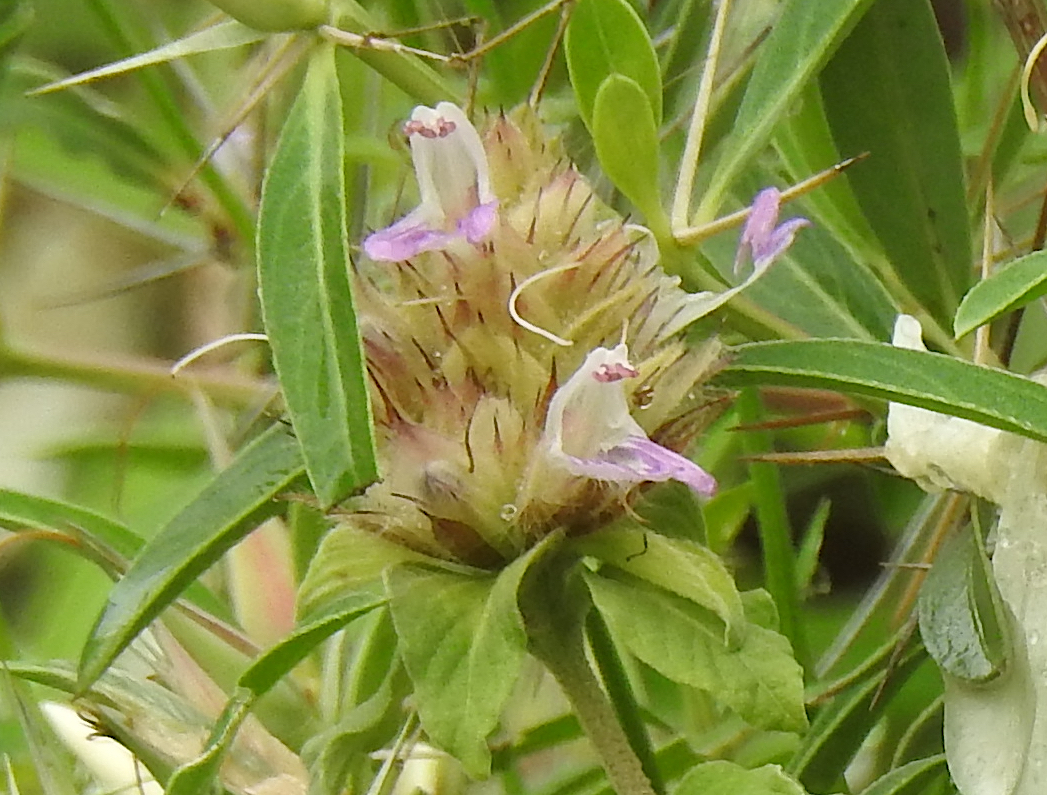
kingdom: Plantae
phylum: Tracheophyta
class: Magnoliopsida
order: Lamiales
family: Acanthaceae
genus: Lepidagathis
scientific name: Lepidagathis scariosa
